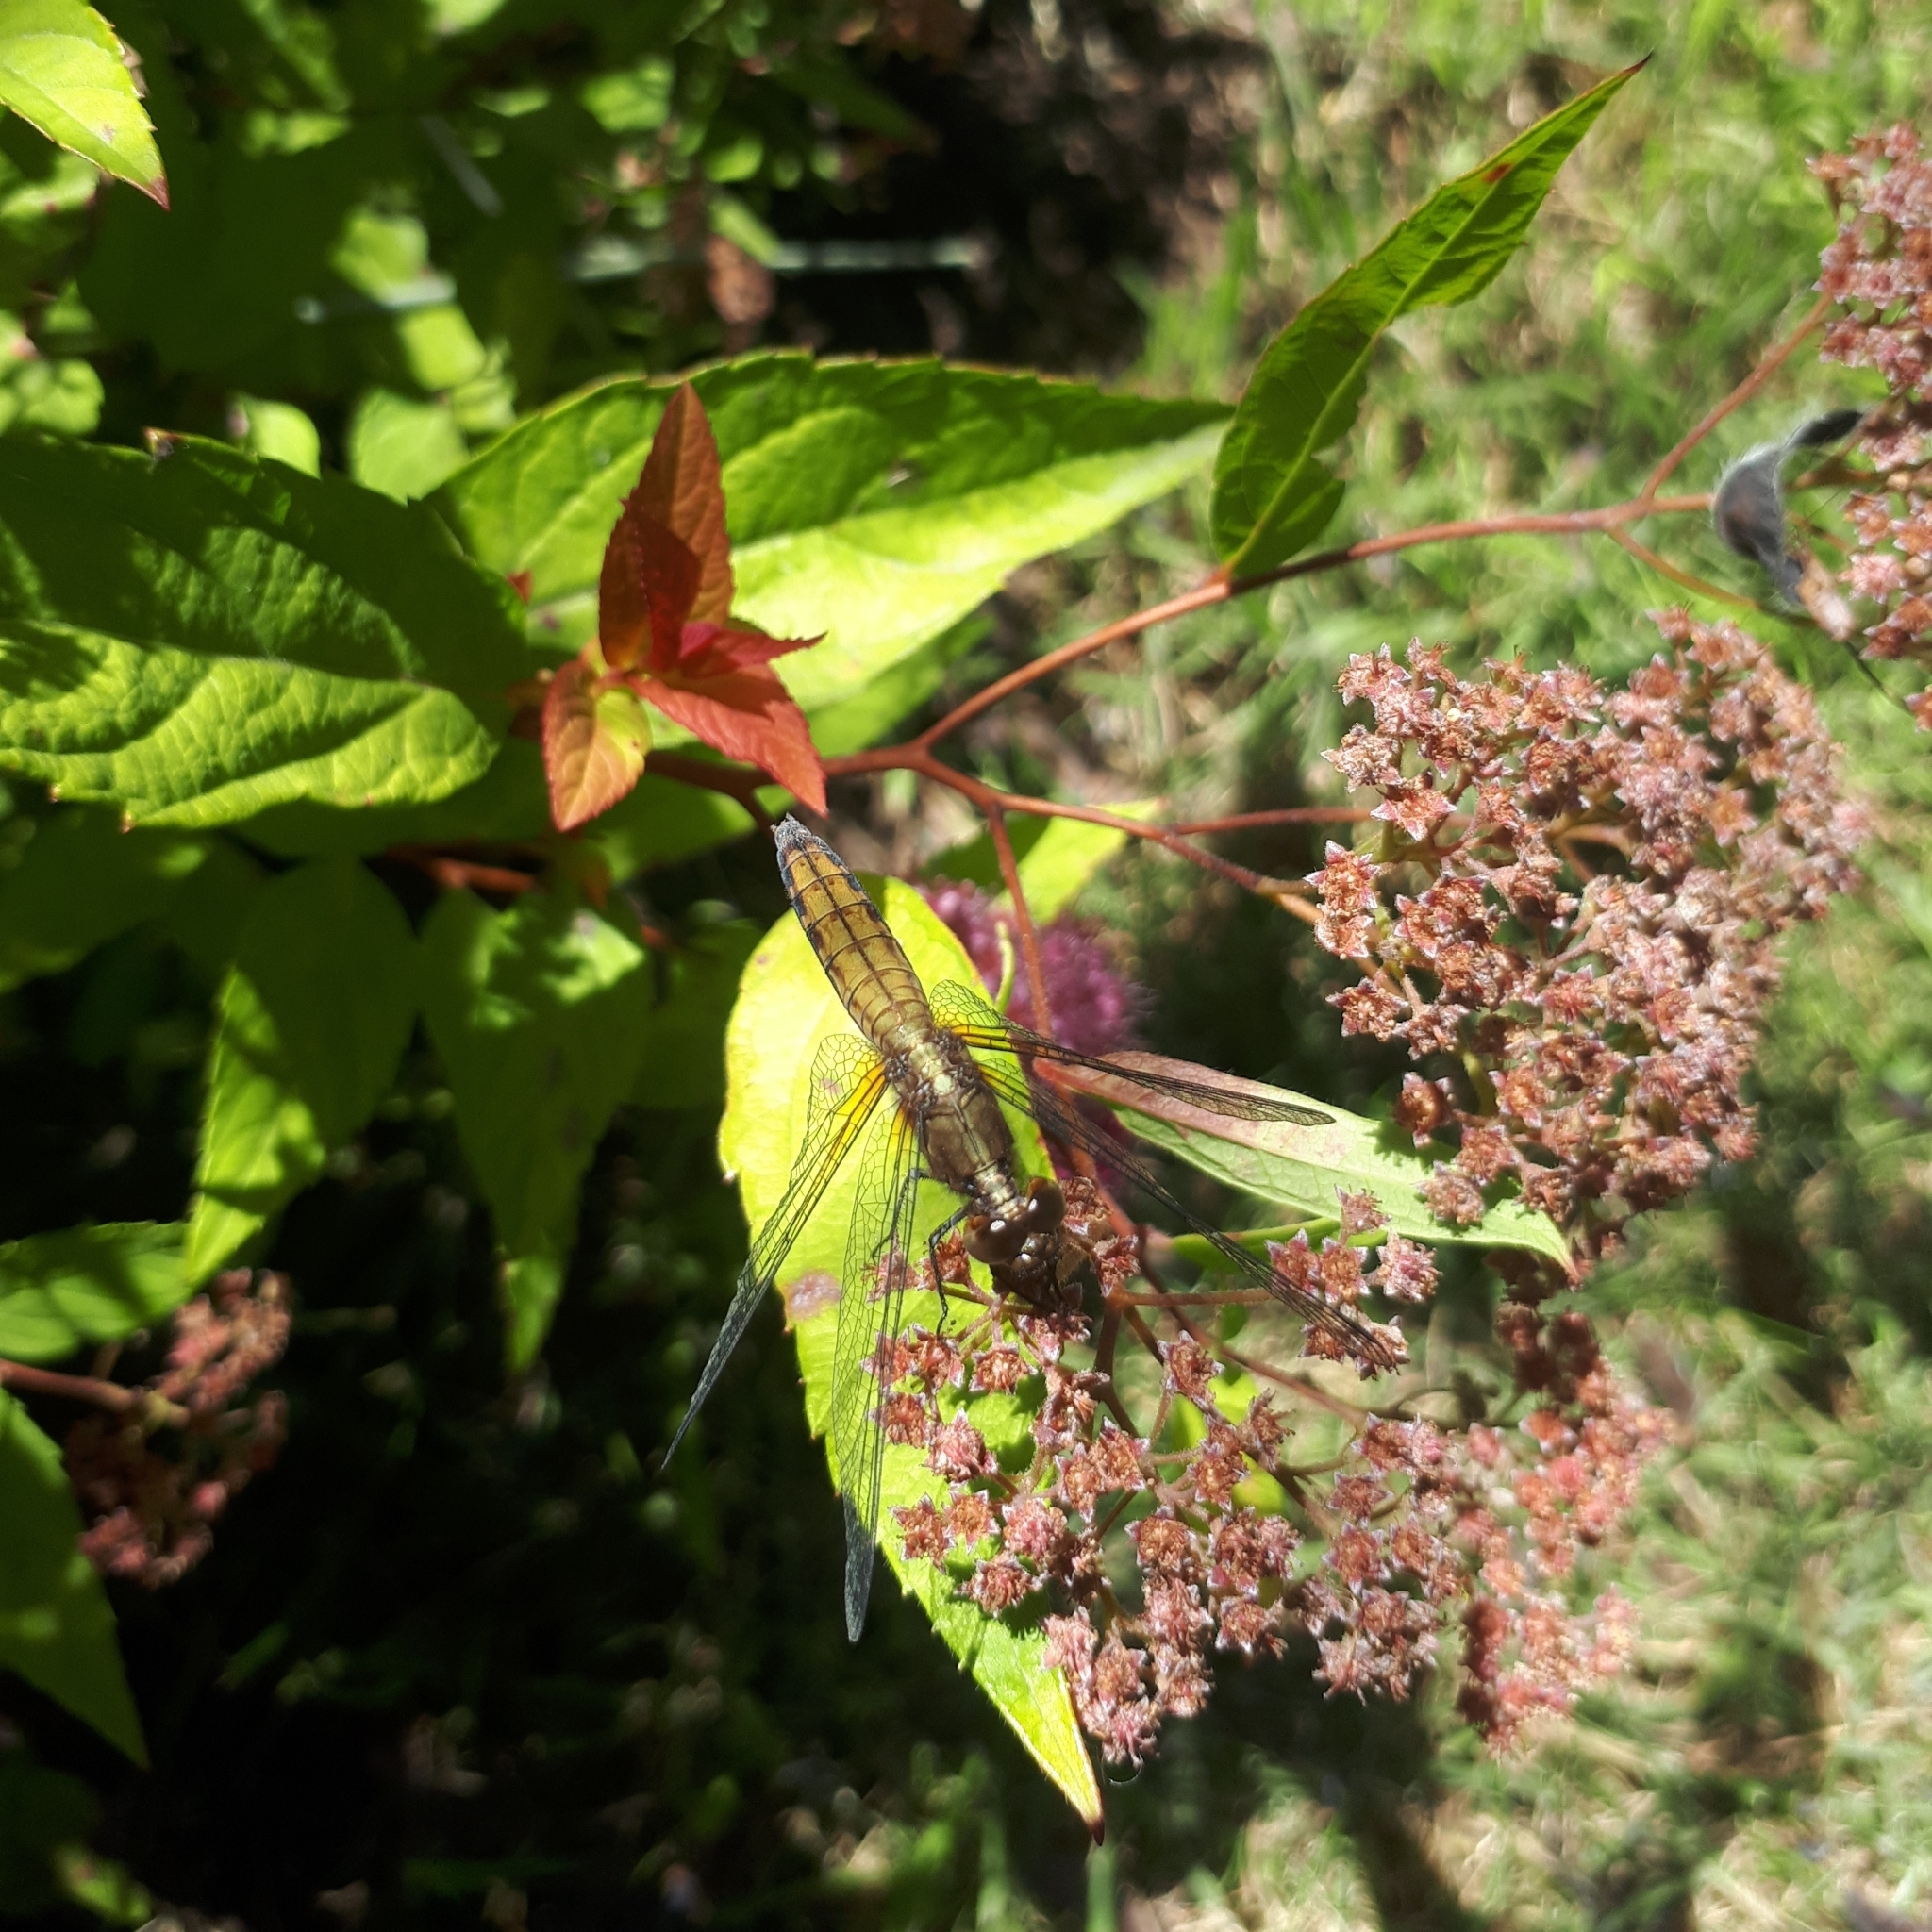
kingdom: Animalia
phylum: Arthropoda
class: Insecta
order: Odonata
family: Libellulidae
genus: Erythrodiplax
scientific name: Erythrodiplax connata
